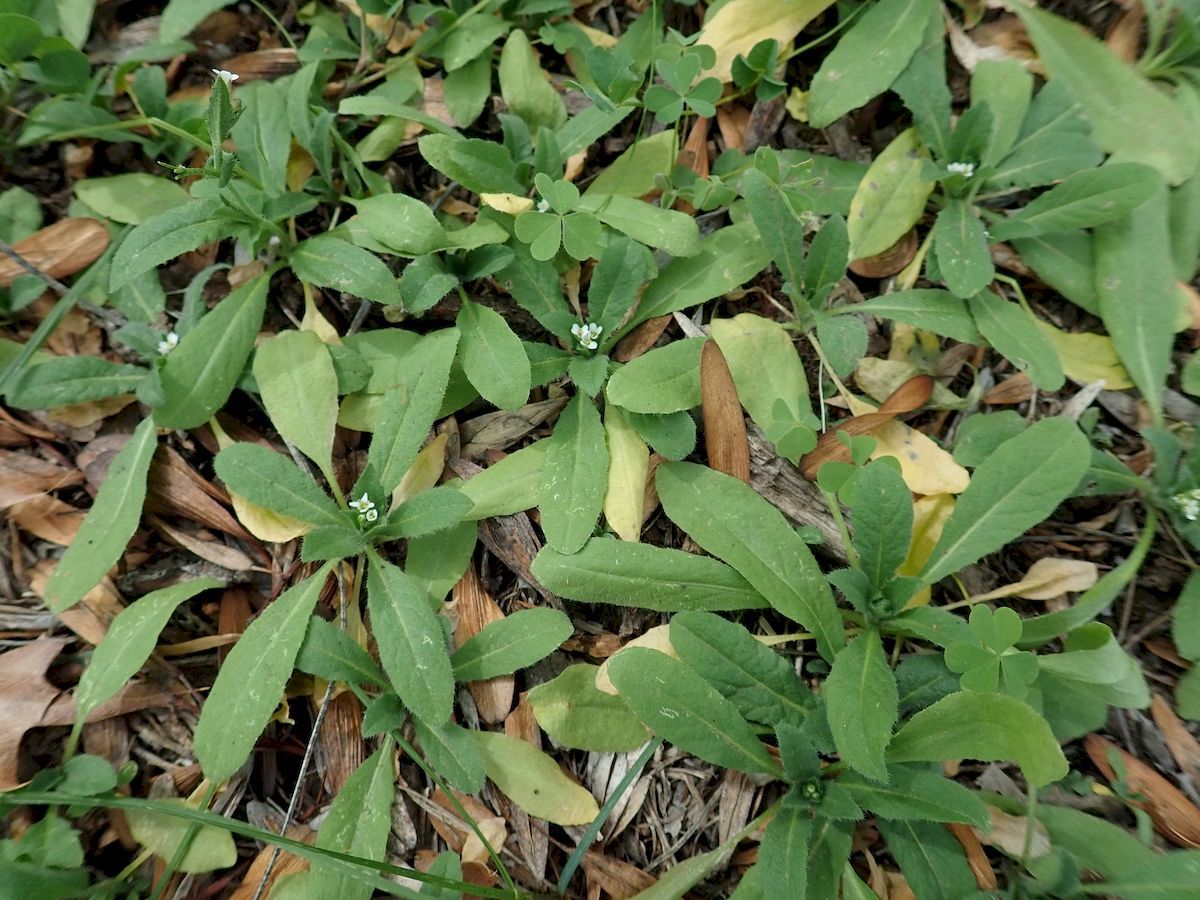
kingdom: Plantae
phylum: Tracheophyta
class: Magnoliopsida
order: Brassicales
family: Brassicaceae
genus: Capsella
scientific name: Capsella bursa-pastoris
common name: Shepherd's purse
